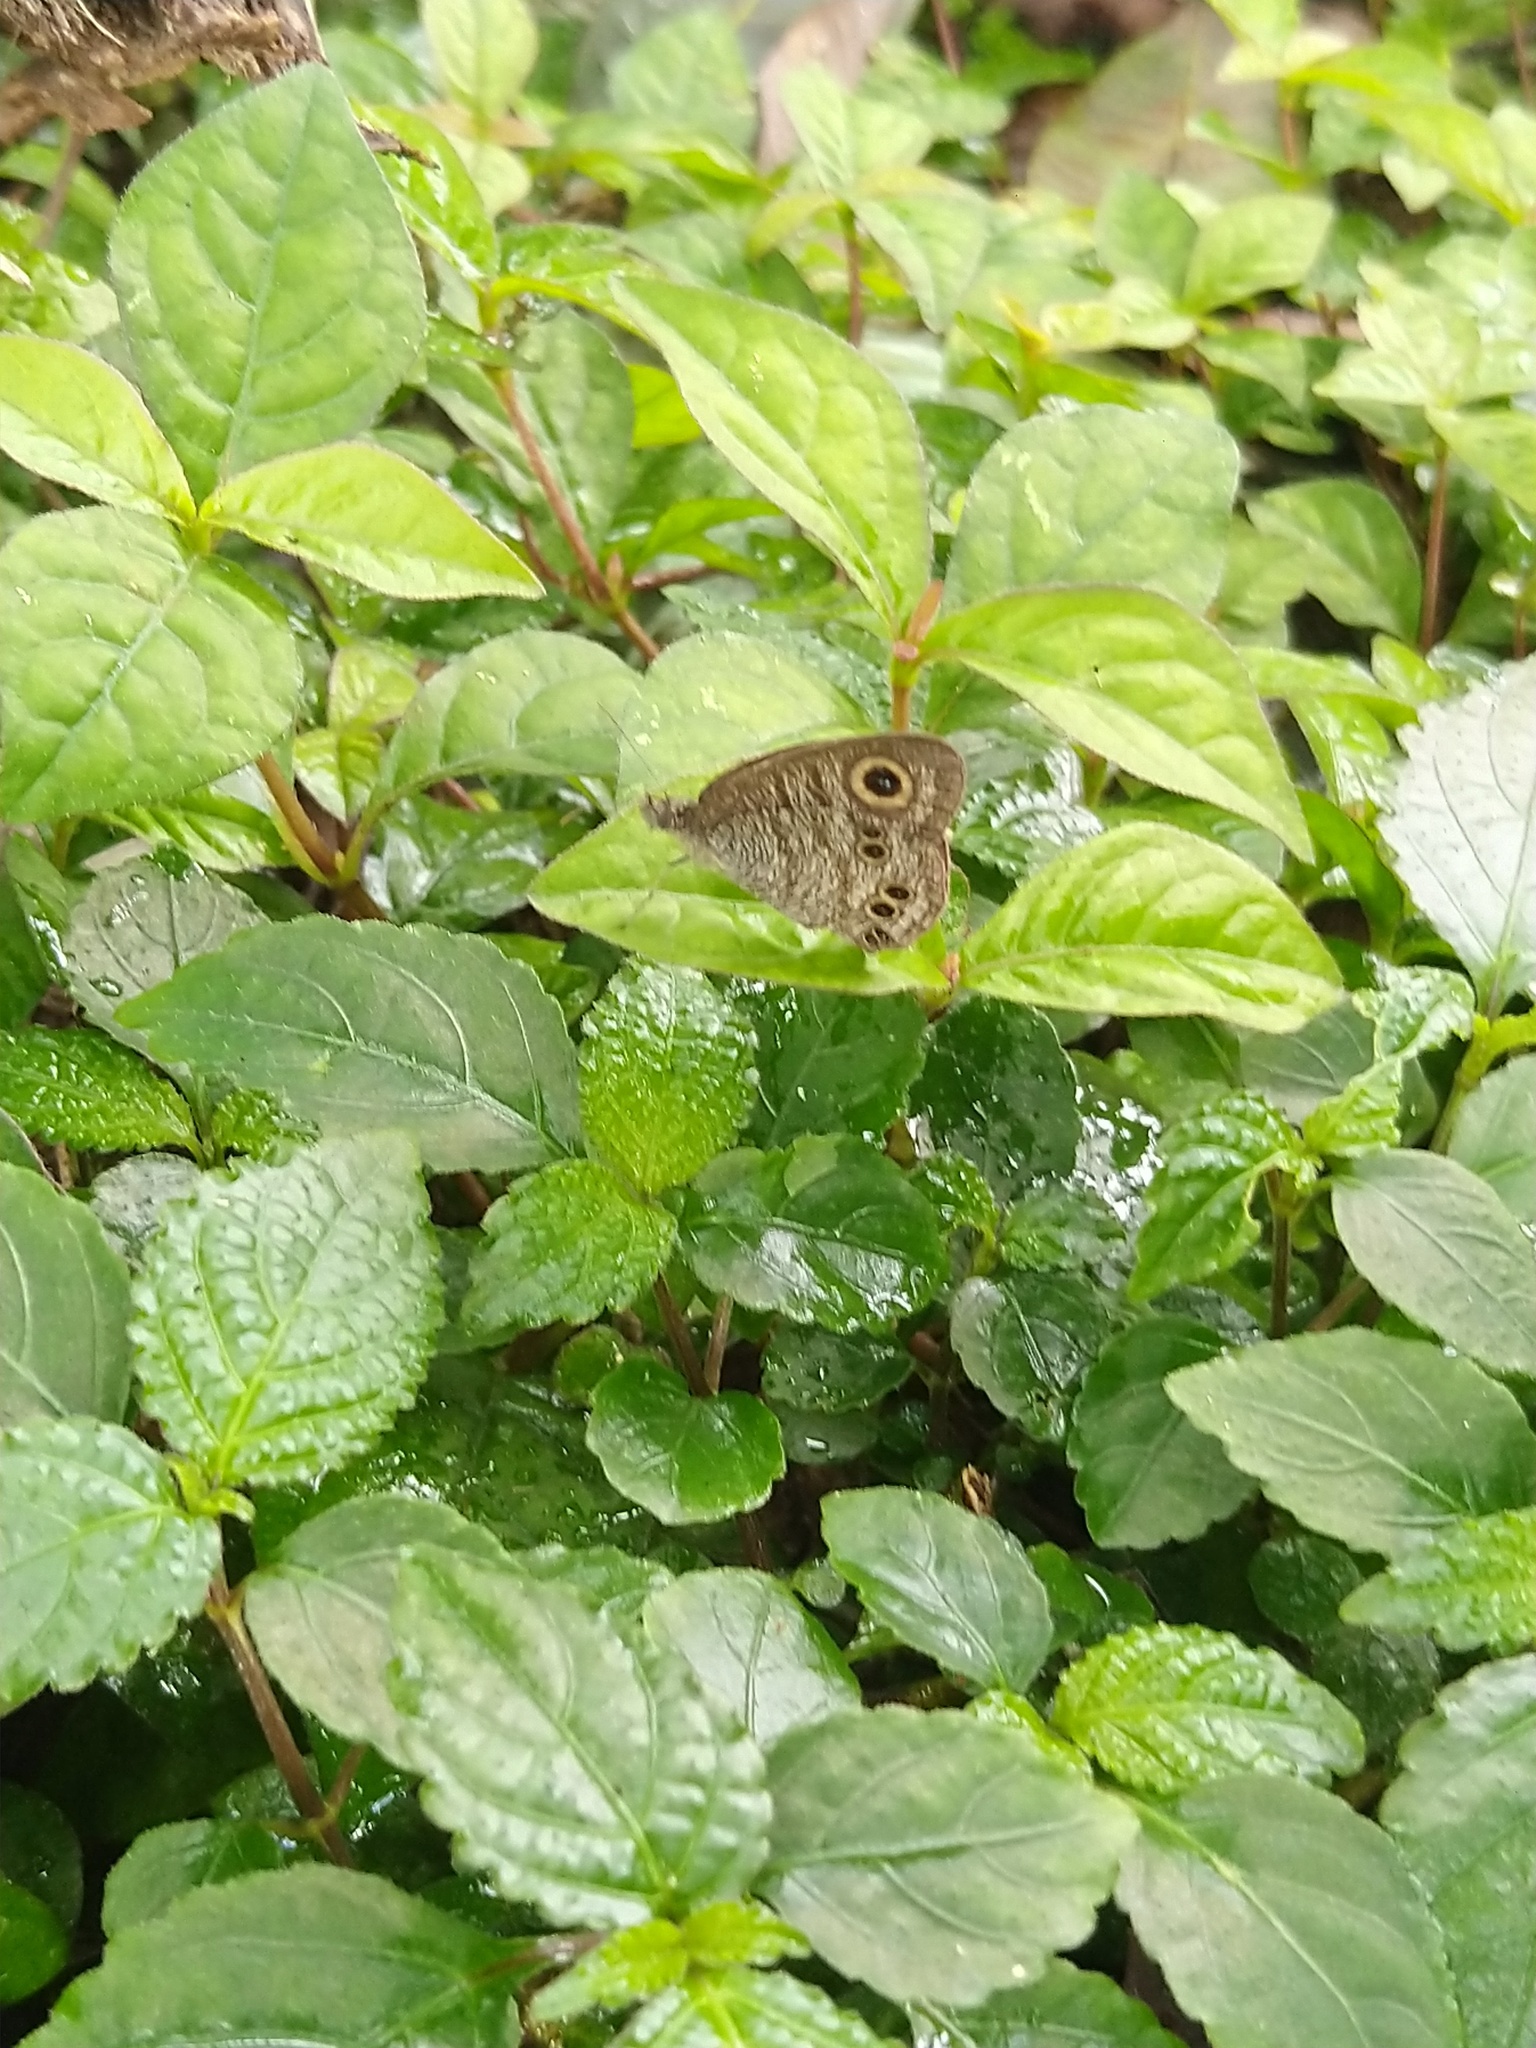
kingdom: Animalia
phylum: Arthropoda
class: Insecta
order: Lepidoptera
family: Nymphalidae
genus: Ypthima
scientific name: Ypthima baldus
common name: Common five-ring
